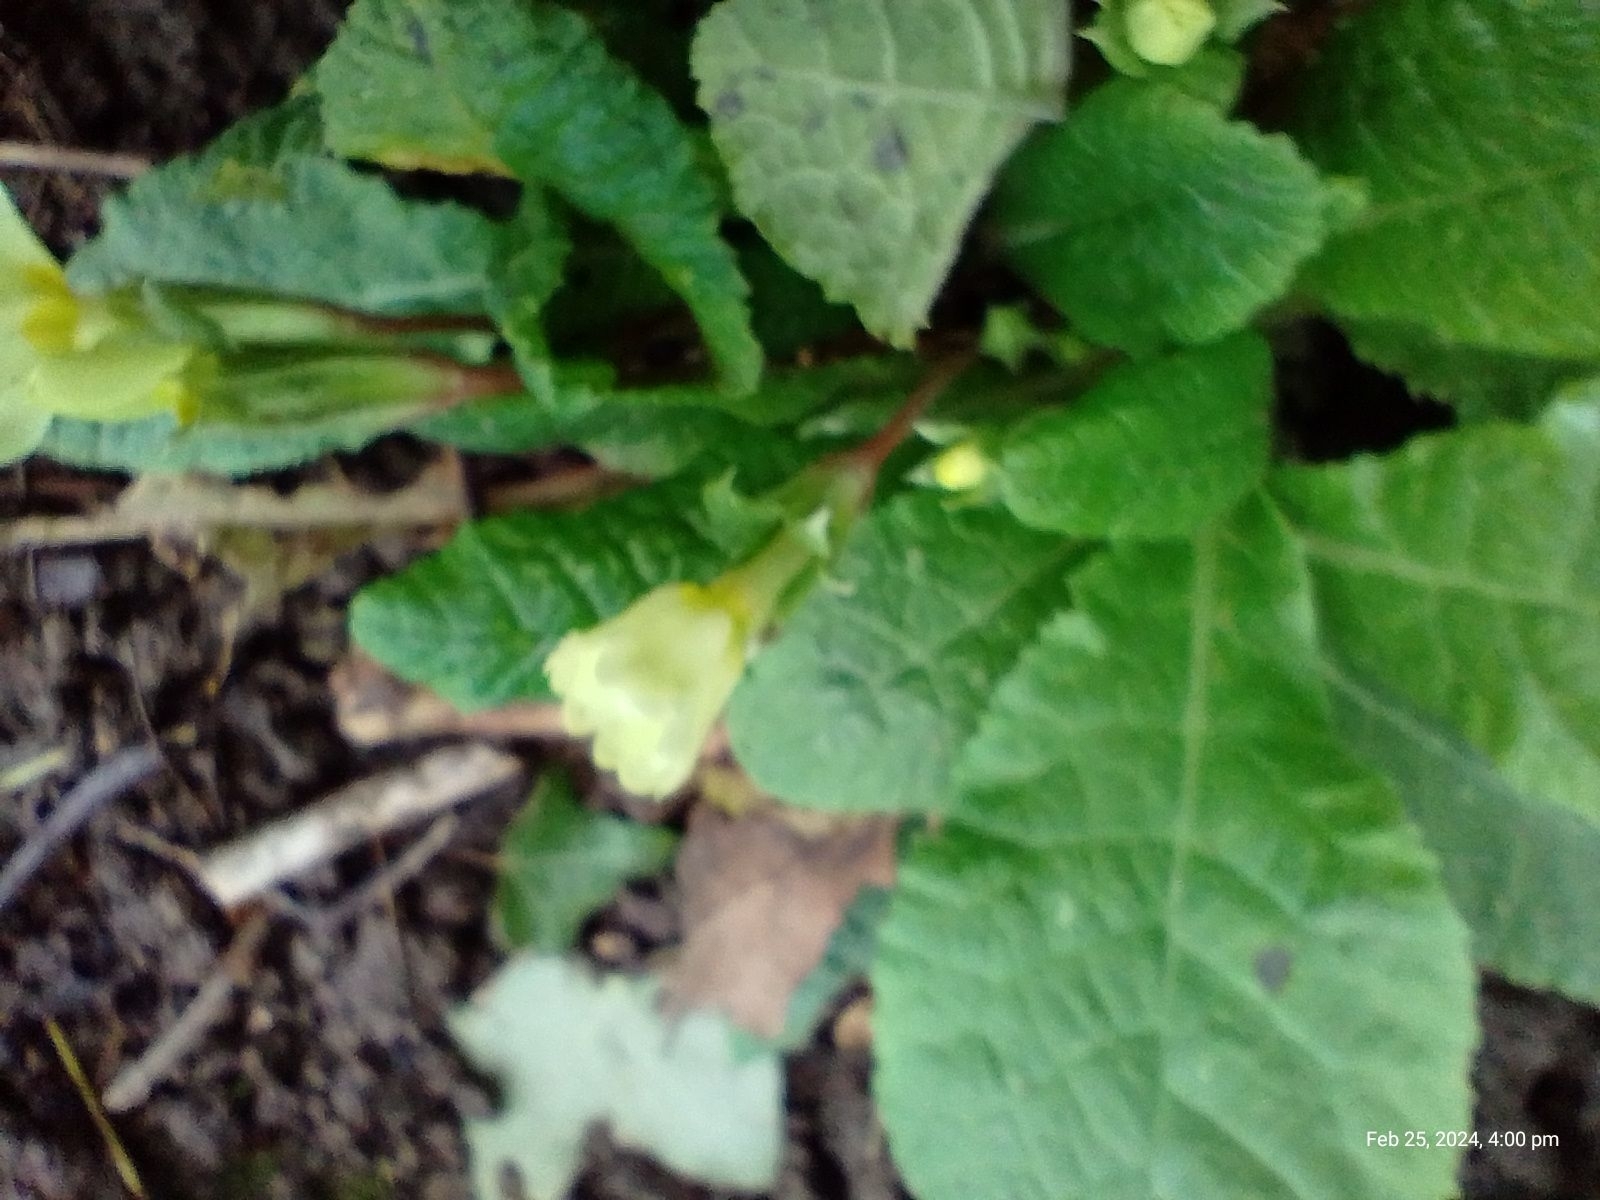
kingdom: Plantae
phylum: Tracheophyta
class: Magnoliopsida
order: Ericales
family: Primulaceae
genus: Primula
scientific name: Primula vulgaris
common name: Primrose
